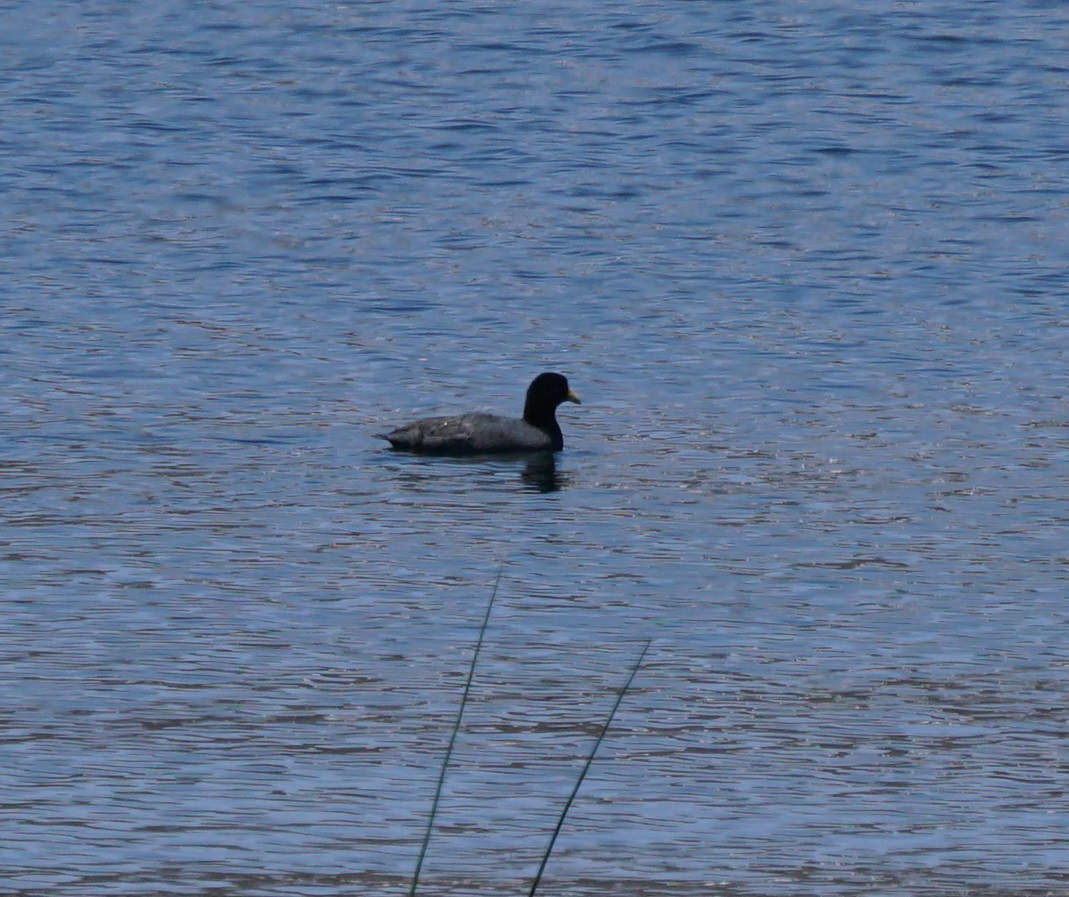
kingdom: Animalia
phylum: Chordata
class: Aves
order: Gruiformes
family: Rallidae
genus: Fulica
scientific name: Fulica ardesiaca
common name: Andean coot
